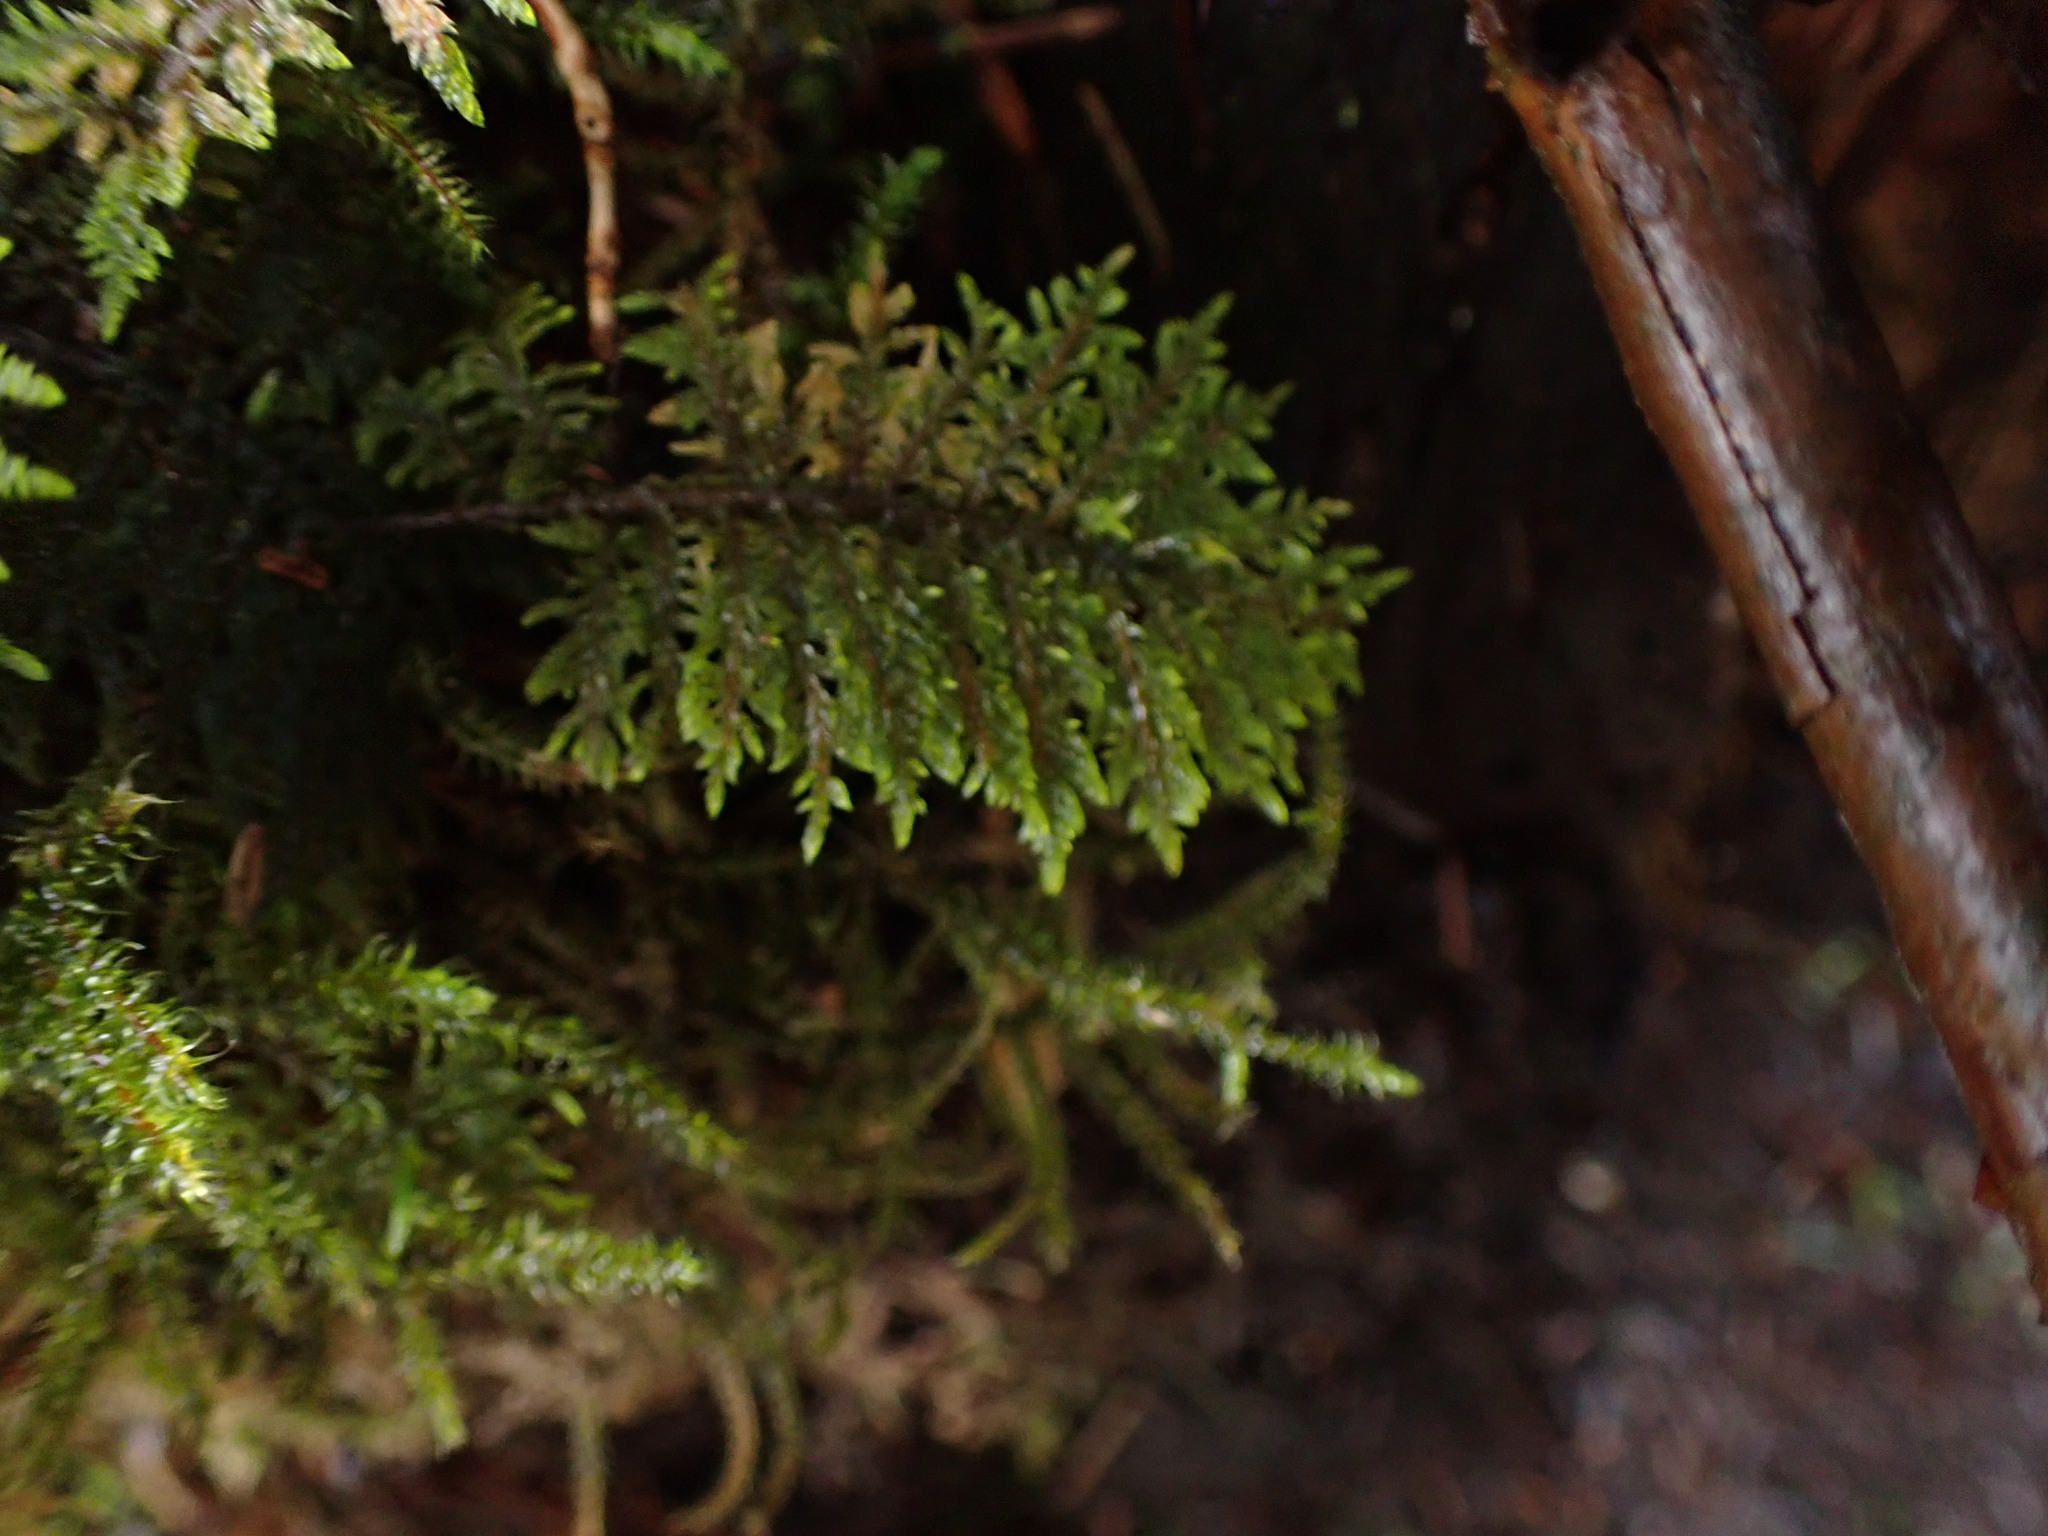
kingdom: Plantae
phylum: Bryophyta
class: Bryopsida
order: Hypnales
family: Hylocomiaceae
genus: Hylocomium
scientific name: Hylocomium splendens
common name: Stairstep moss
